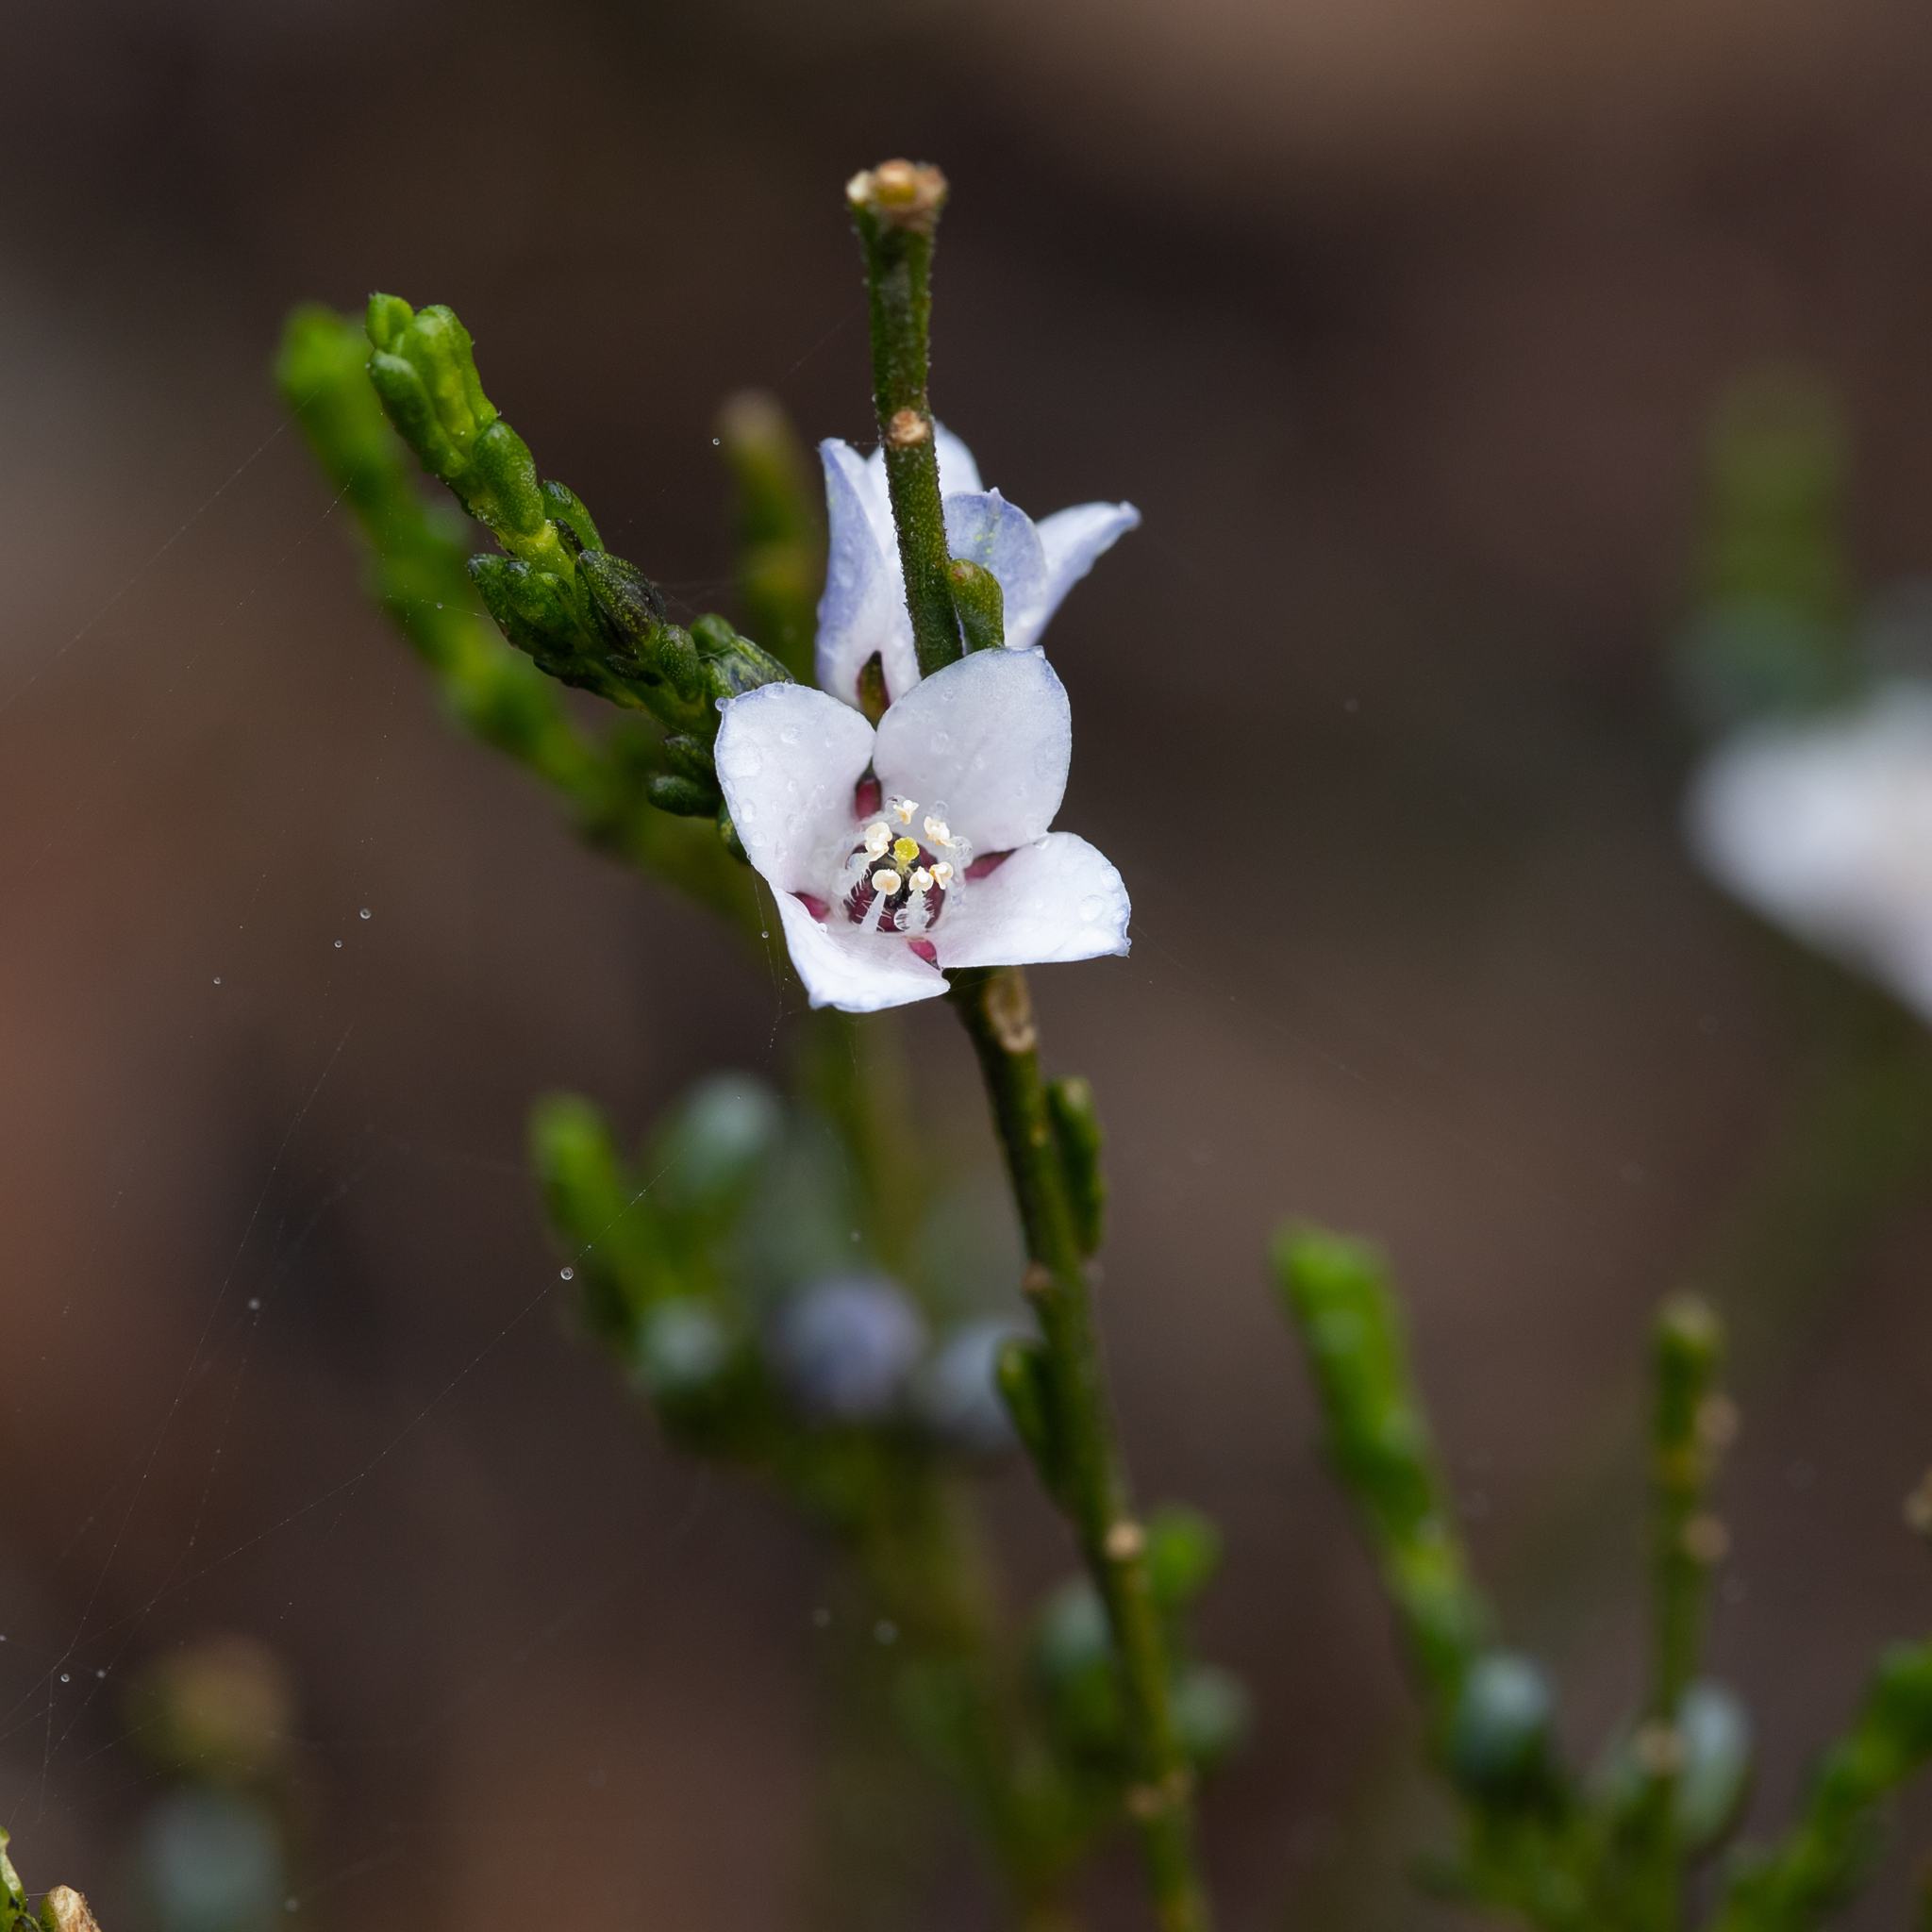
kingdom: Plantae
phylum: Tracheophyta
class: Magnoliopsida
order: Sapindales
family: Rutaceae
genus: Cyanothamnus
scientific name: Cyanothamnus coerulescens
